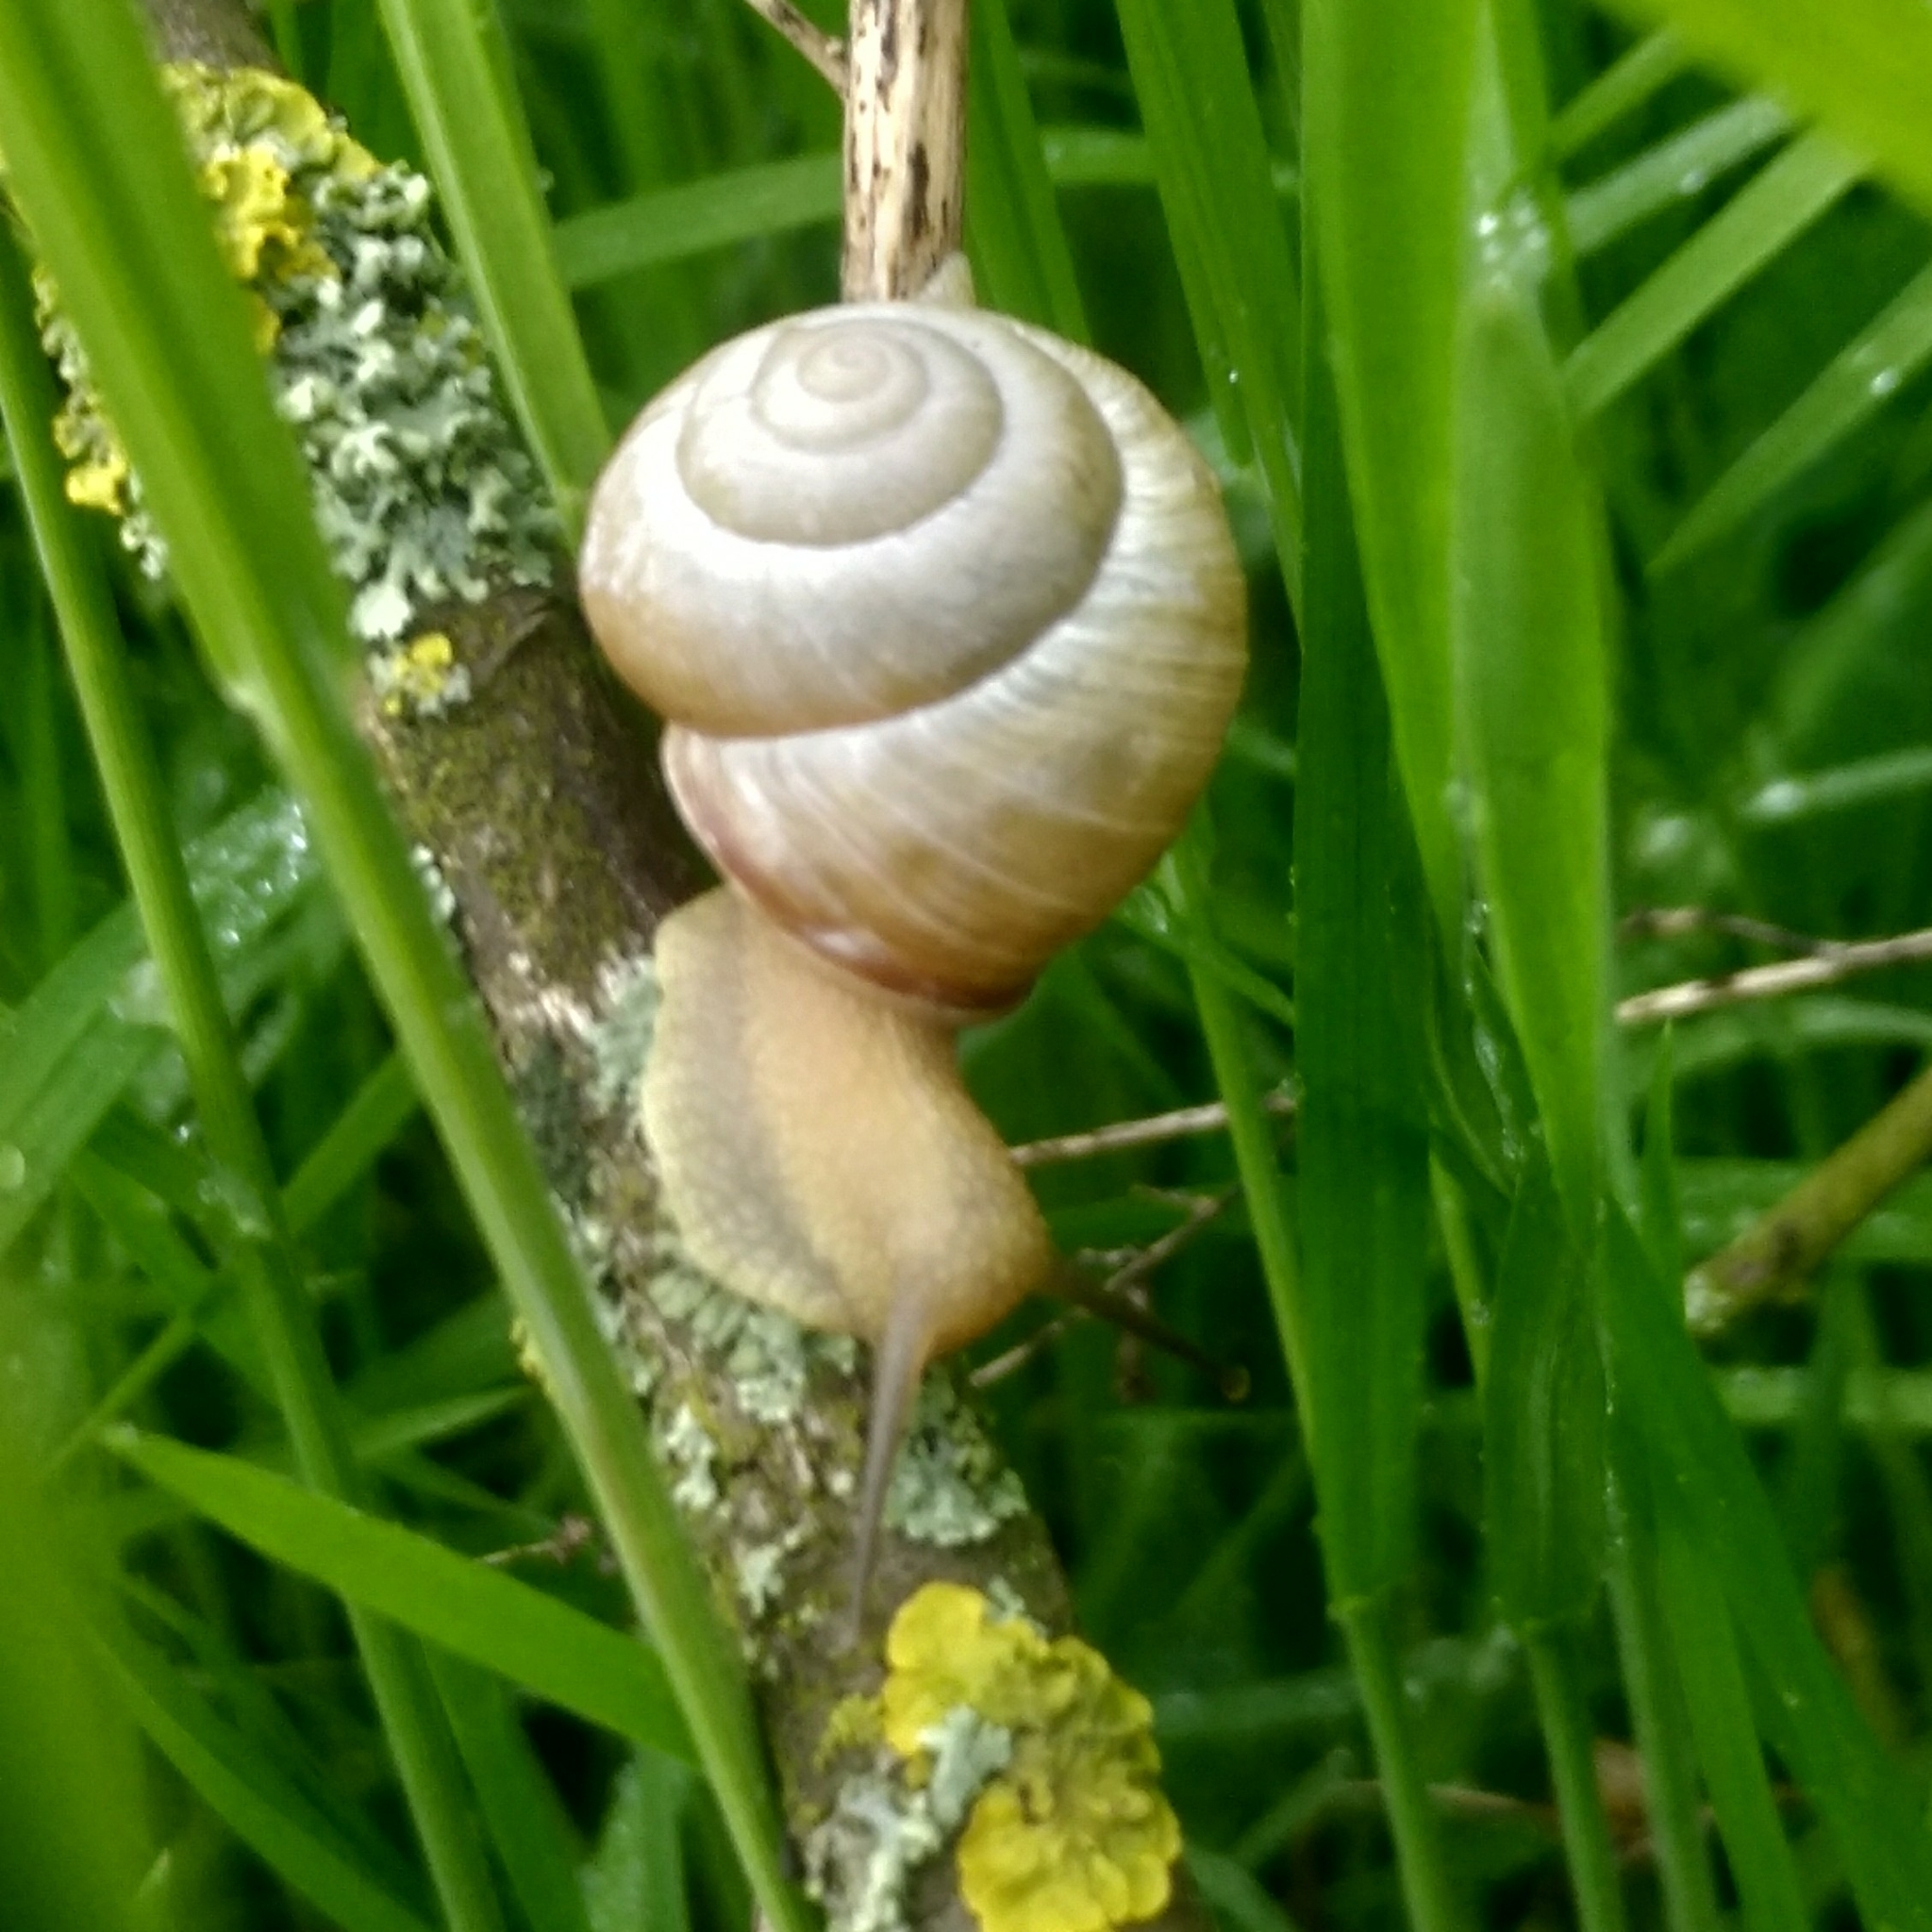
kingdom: Animalia
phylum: Mollusca
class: Gastropoda
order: Stylommatophora
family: Helicidae
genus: Caucasotachea
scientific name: Caucasotachea vindobonensis
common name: European helicid land snail
